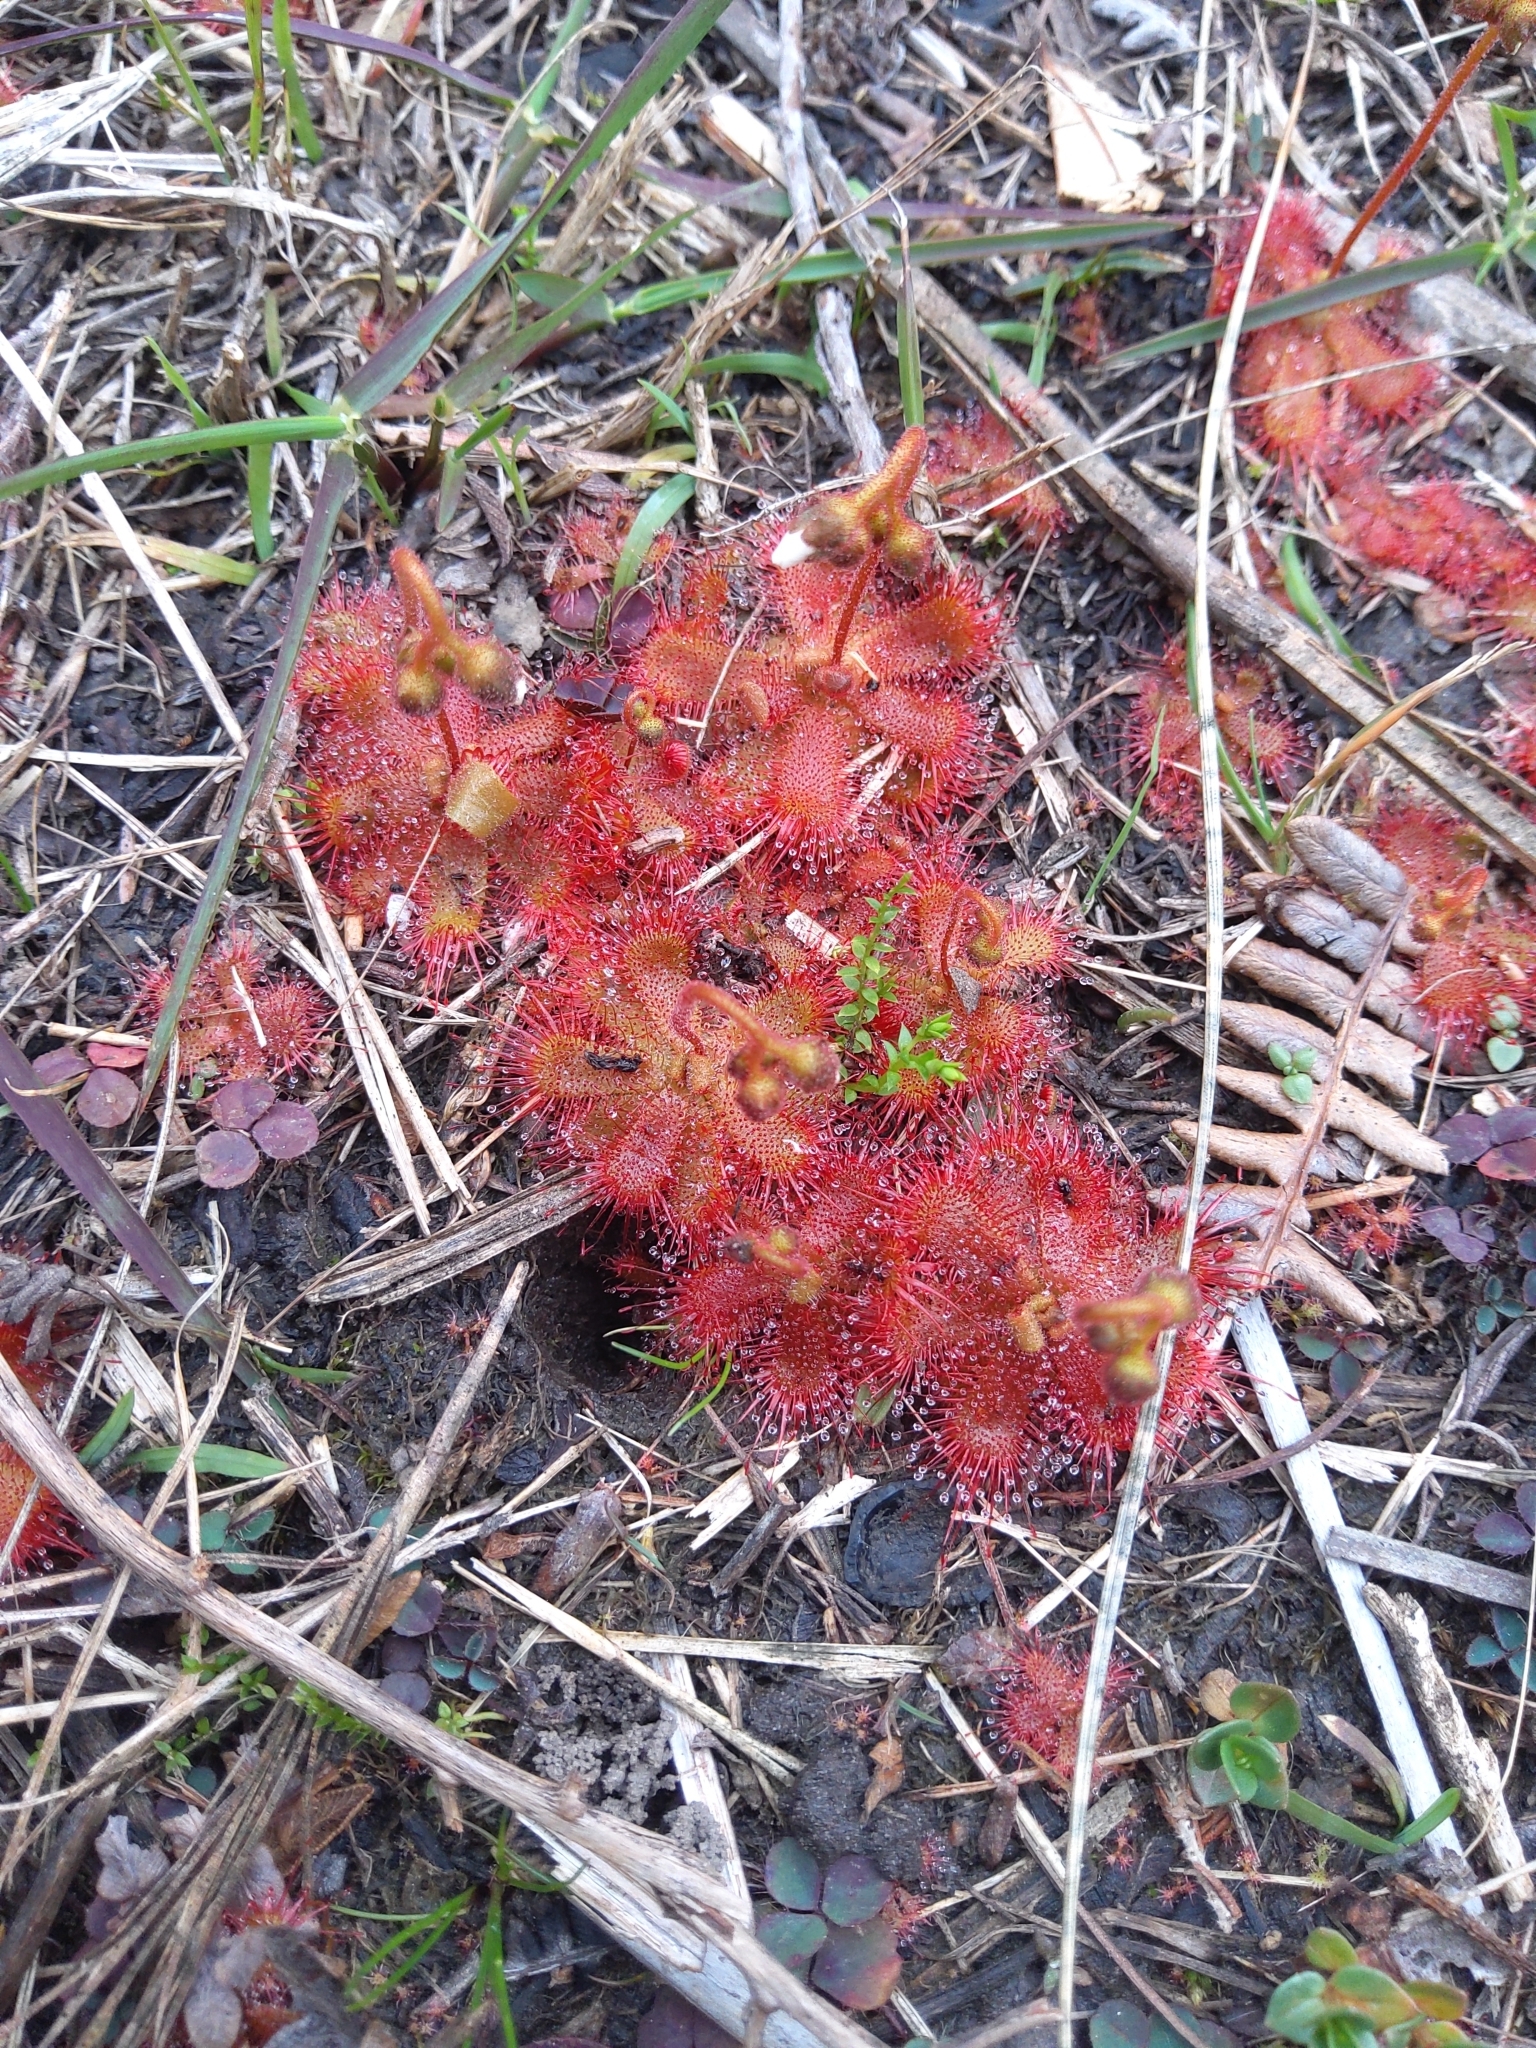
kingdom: Plantae
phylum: Tracheophyta
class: Magnoliopsida
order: Caryophyllales
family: Droseraceae
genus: Drosera
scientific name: Drosera trinervia
